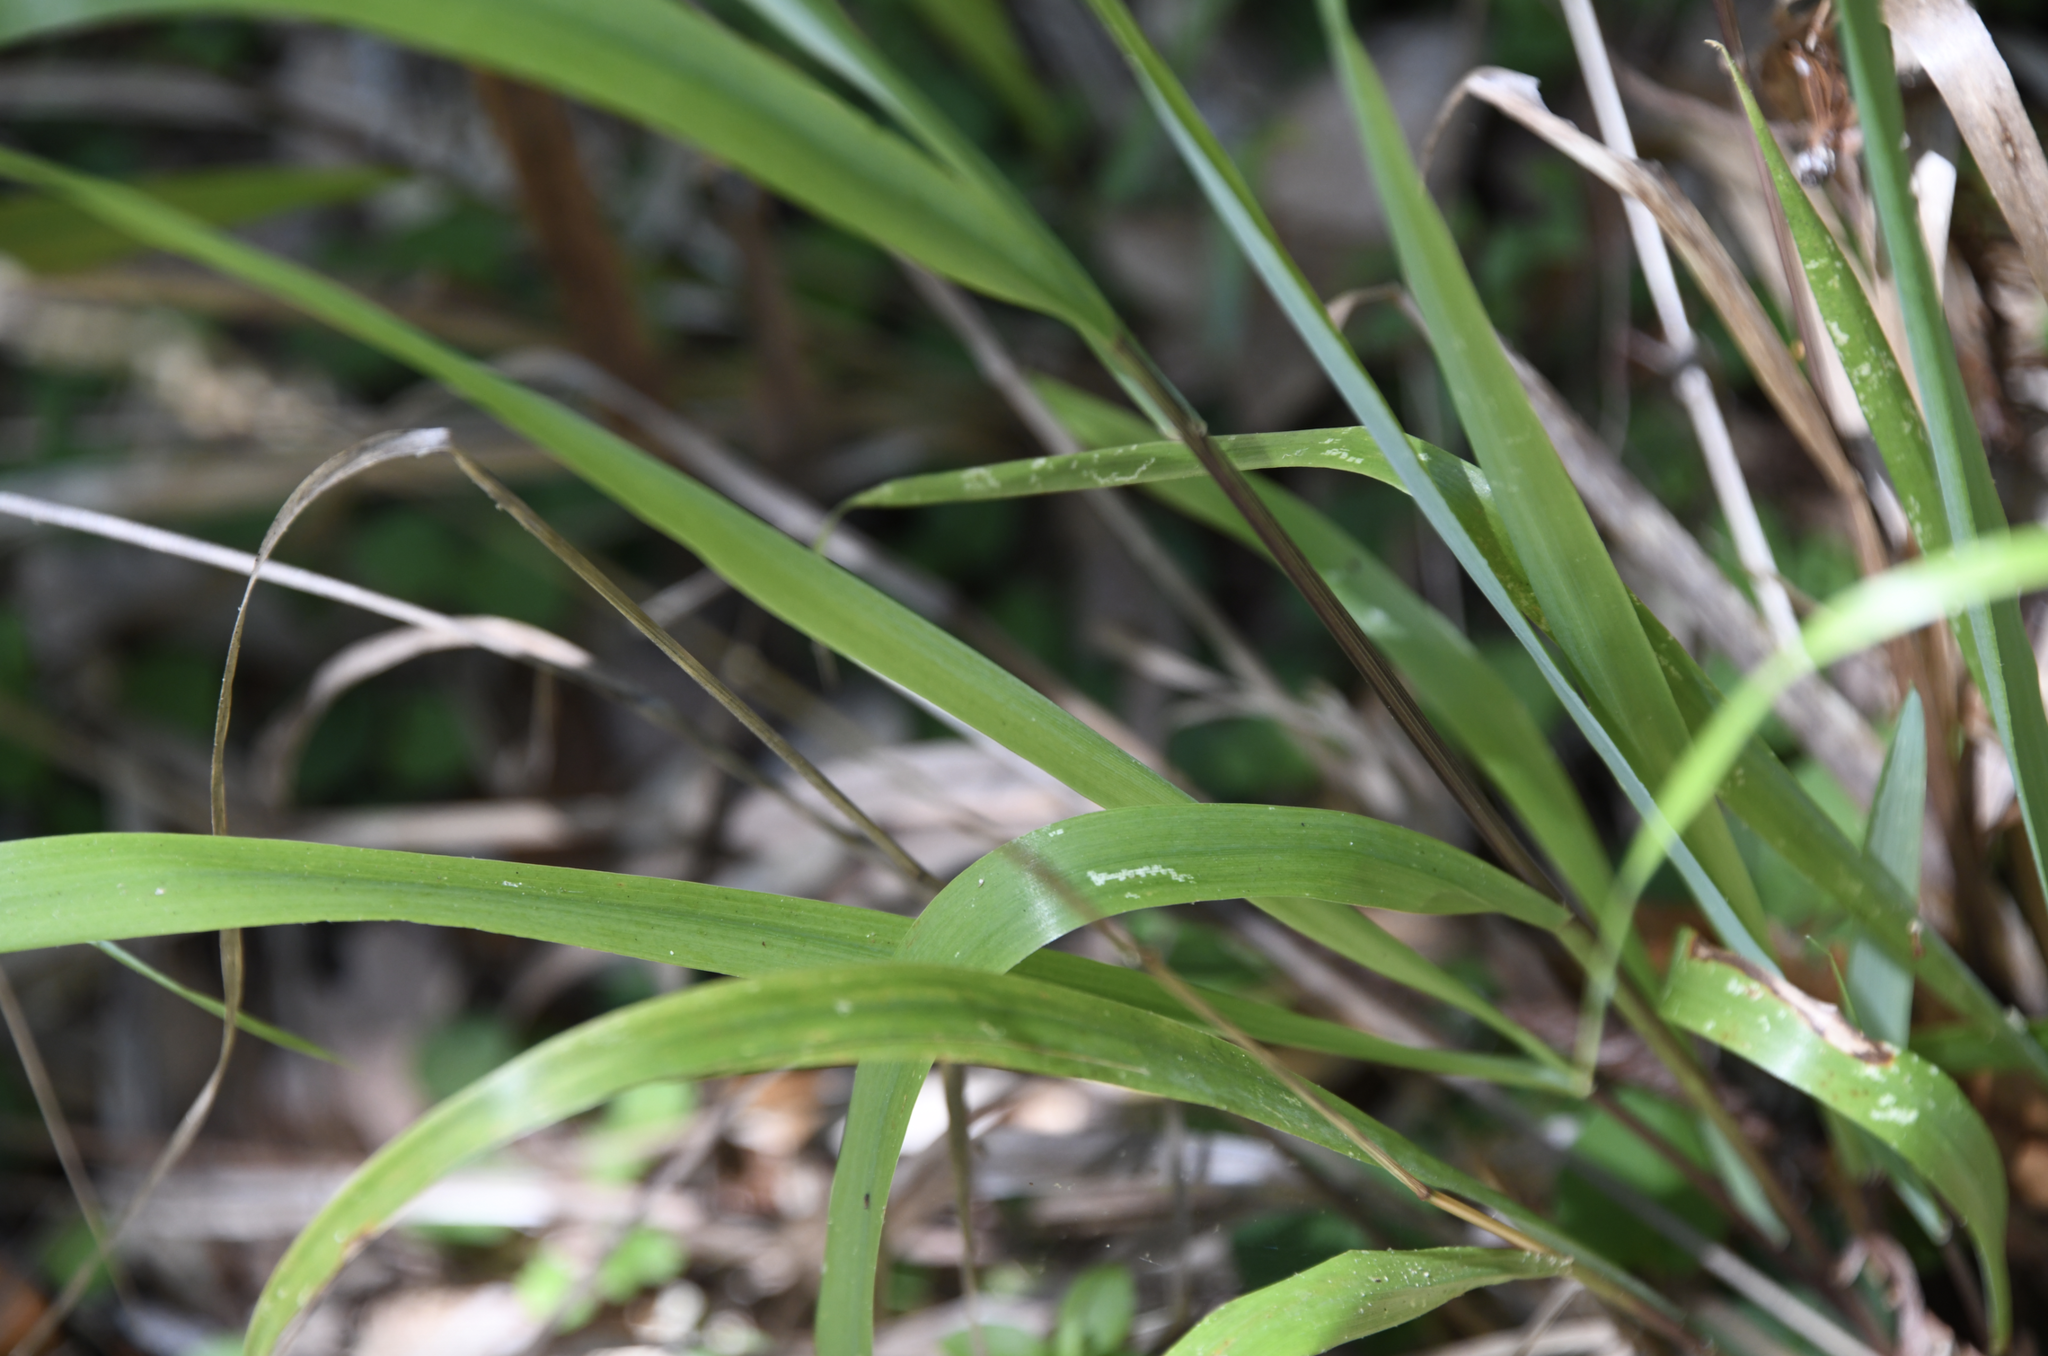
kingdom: Plantae
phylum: Tracheophyta
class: Liliopsida
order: Poales
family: Poaceae
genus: Anthoxanthum
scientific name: Anthoxanthum occidentale
